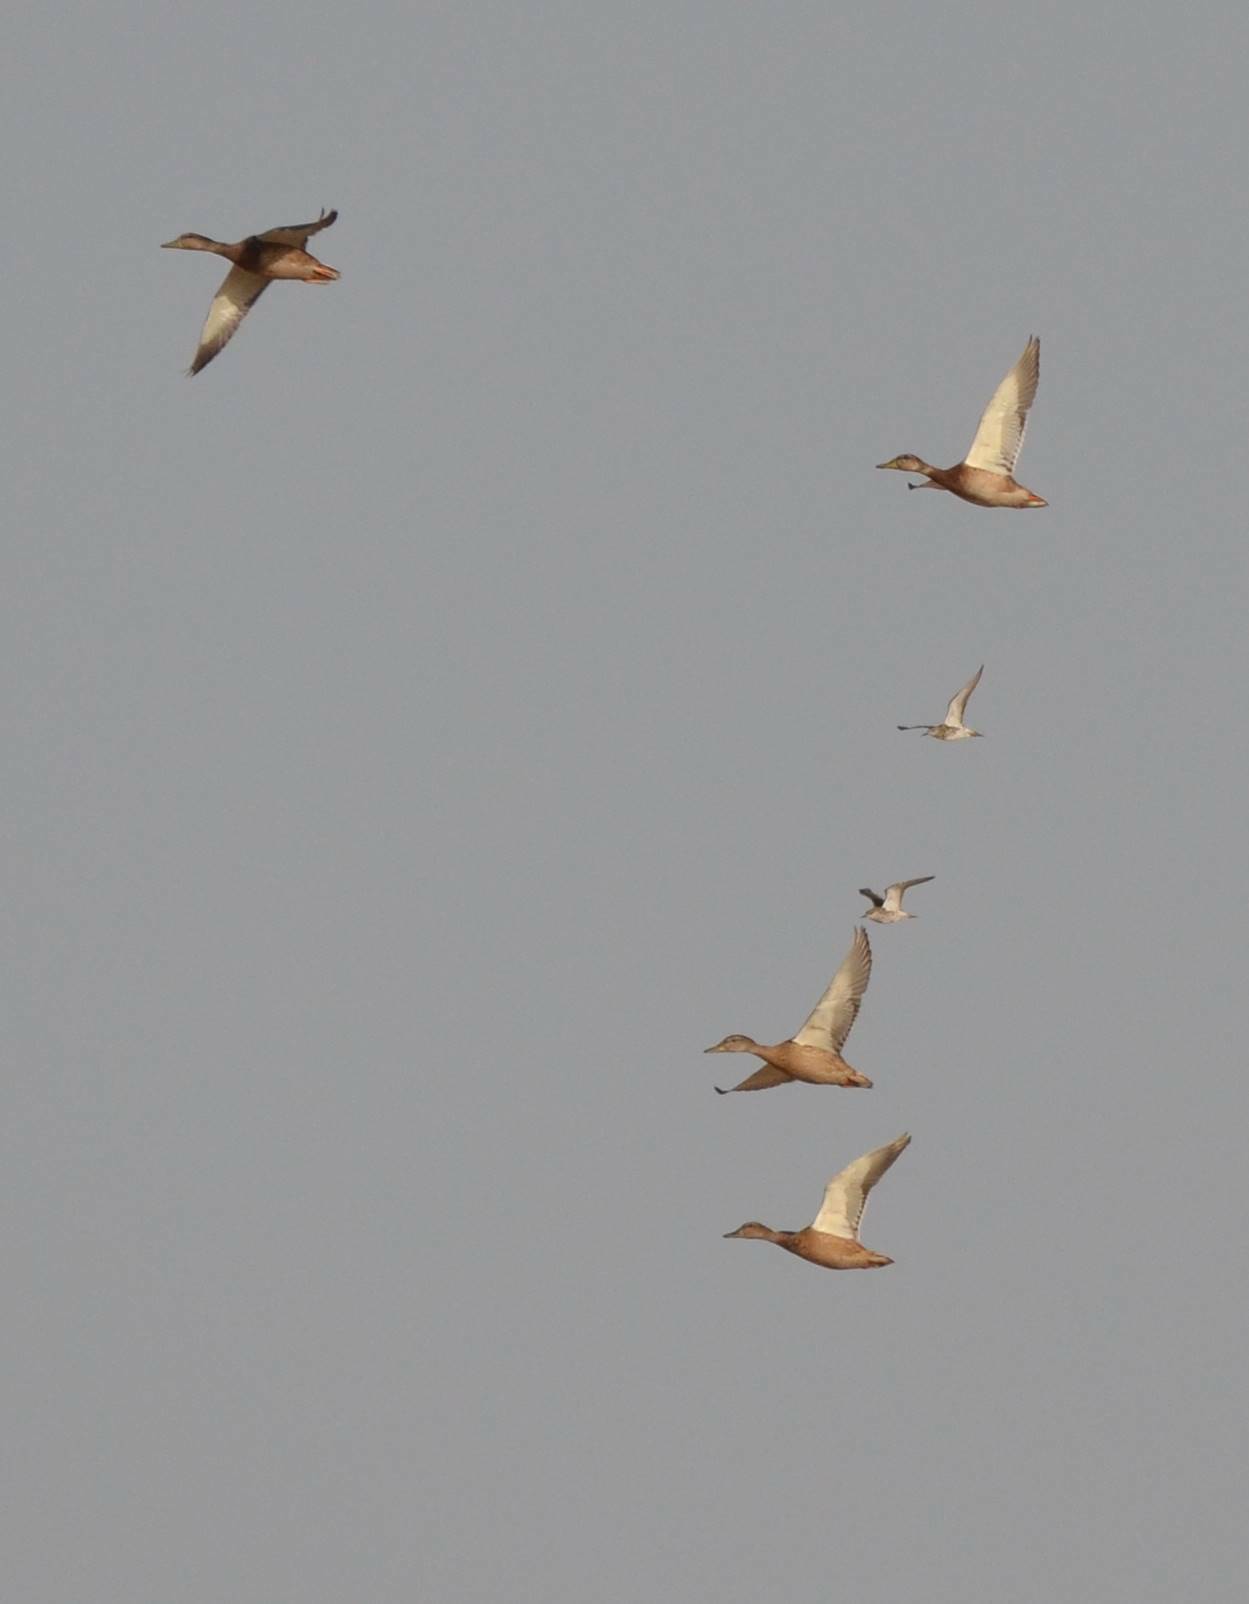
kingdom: Animalia
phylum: Chordata
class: Aves
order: Anseriformes
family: Anatidae
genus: Anas
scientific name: Anas platyrhynchos
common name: Mallard
